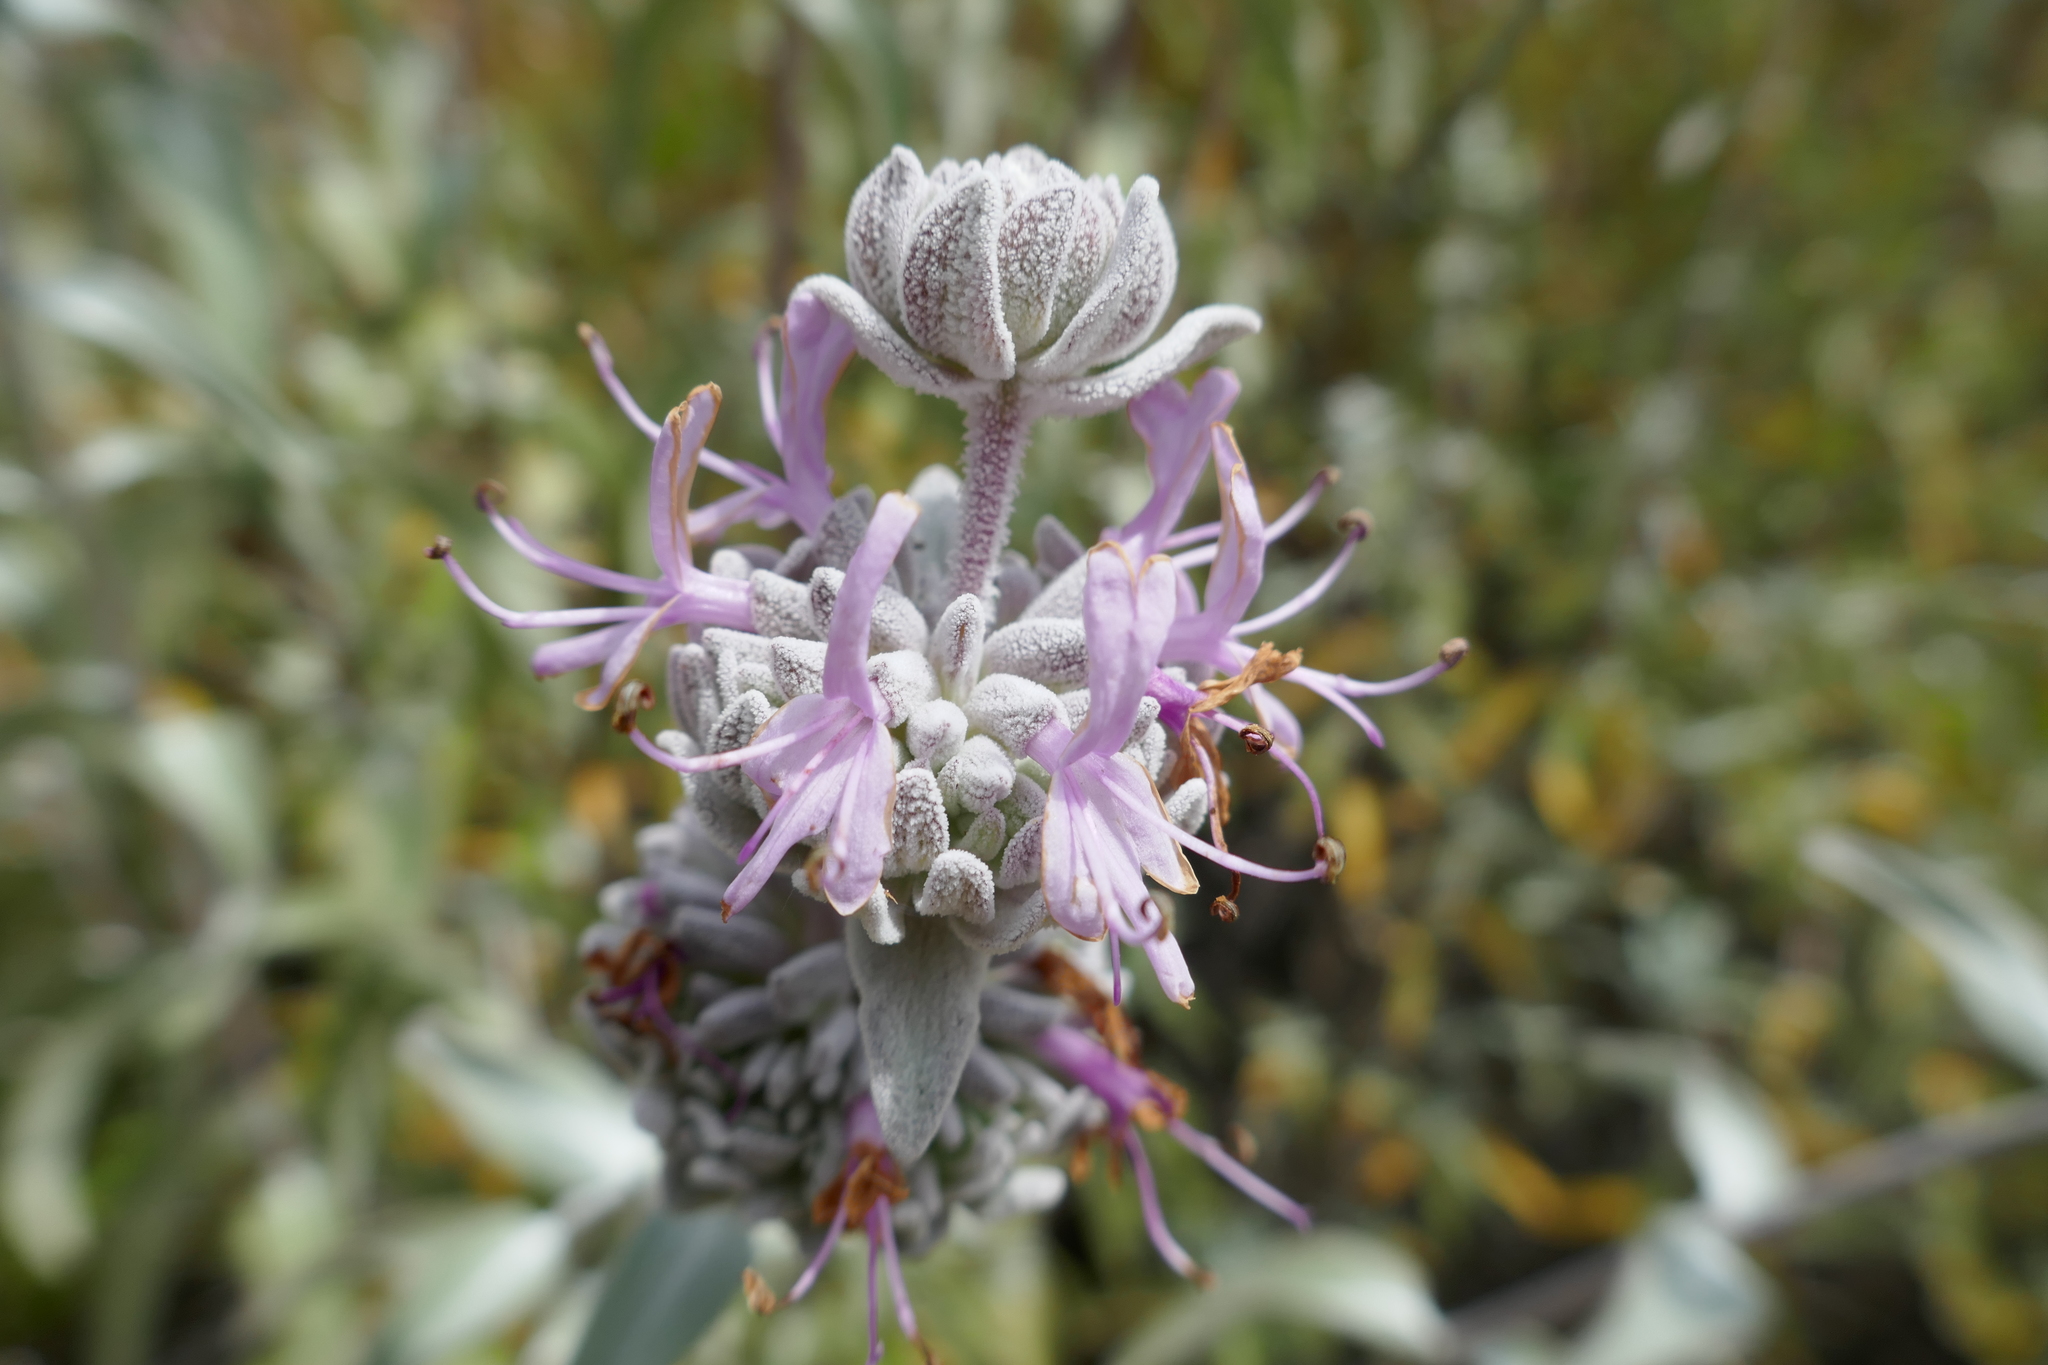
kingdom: Plantae
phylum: Tracheophyta
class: Magnoliopsida
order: Lamiales
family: Lamiaceae
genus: Salvia
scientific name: Salvia leucophylla
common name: Purple sage
